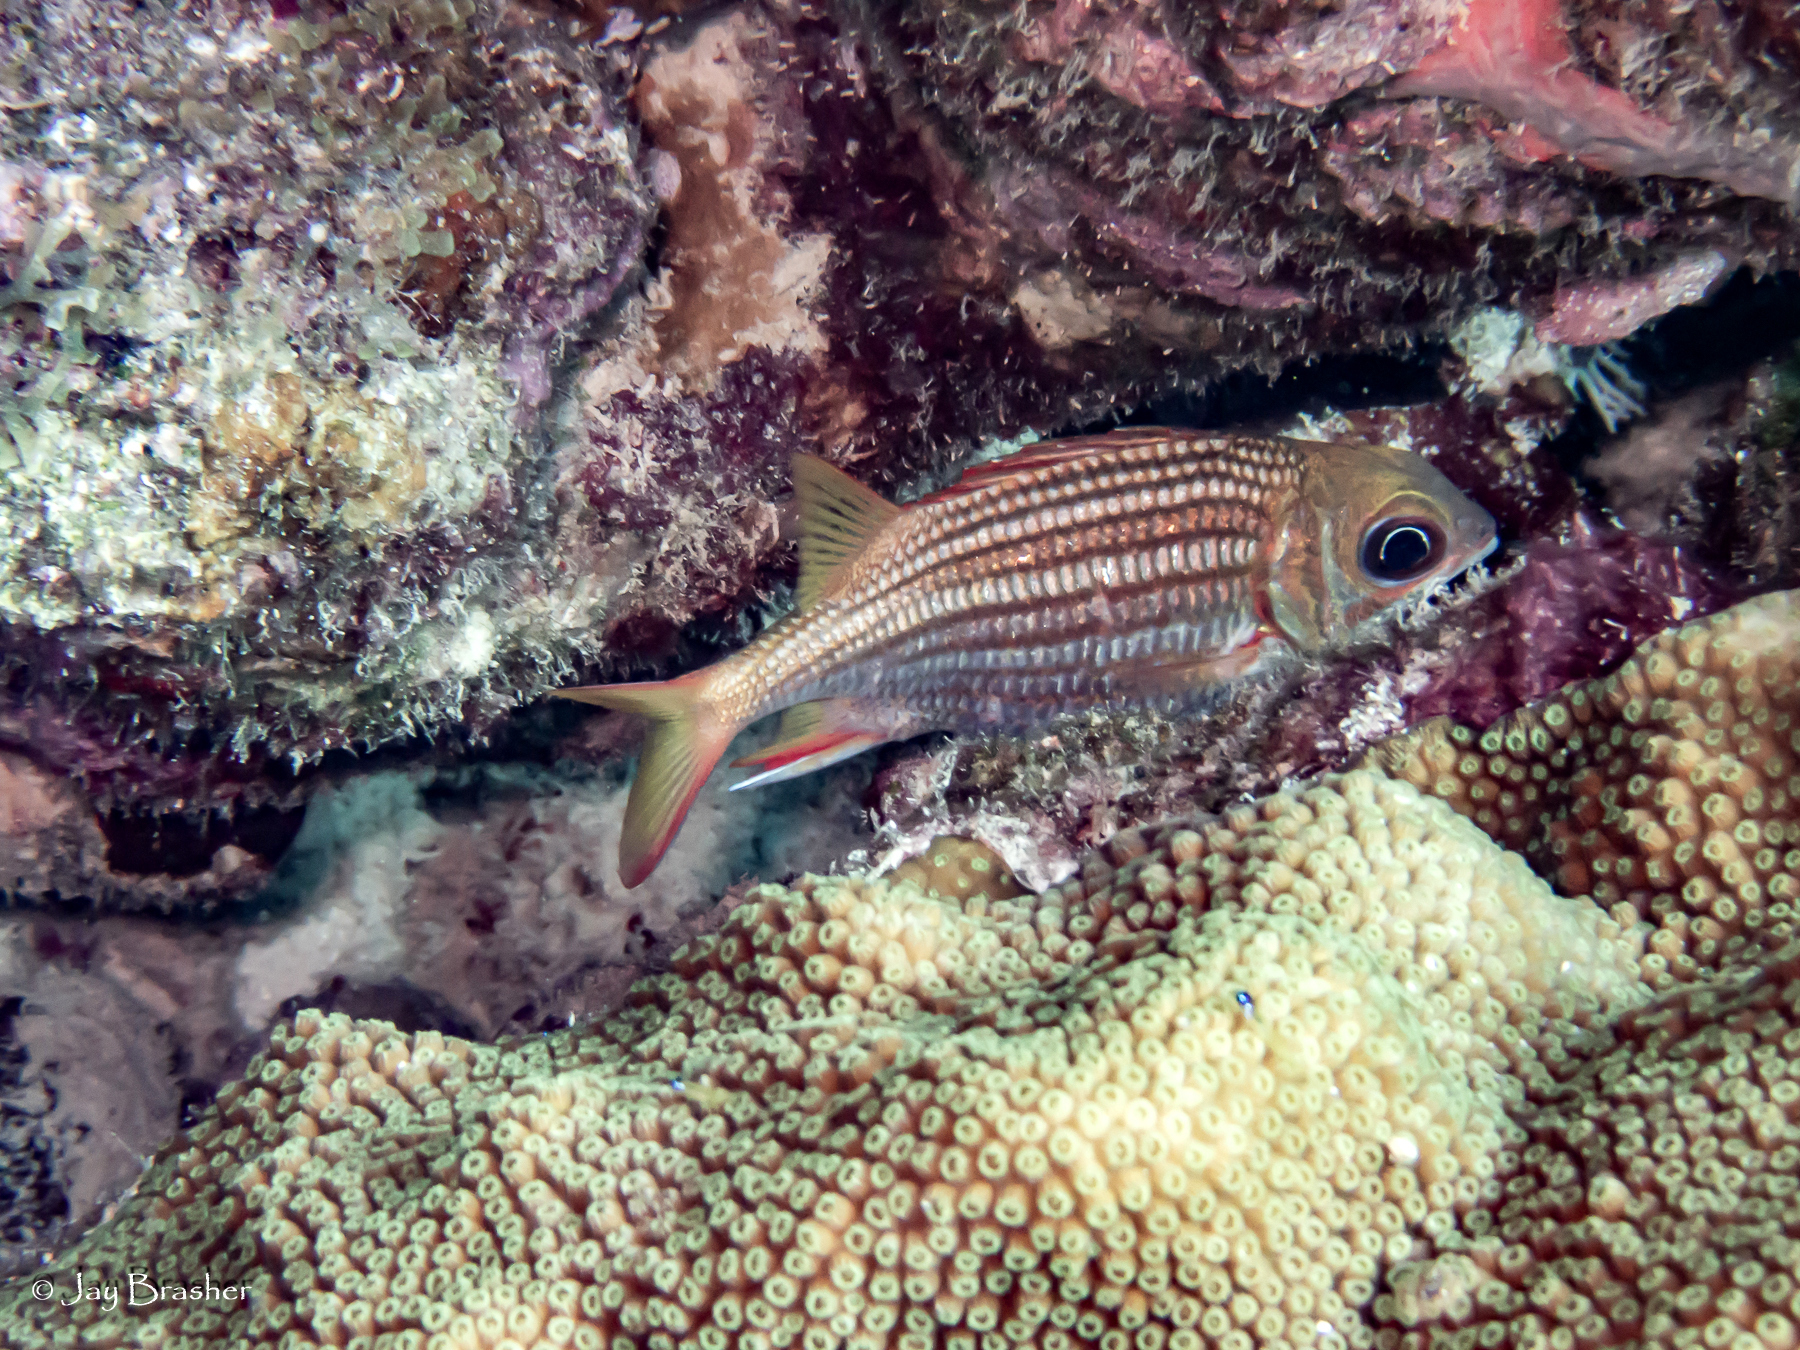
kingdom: Animalia
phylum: Chordata
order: Beryciformes
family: Holocentridae
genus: Neoniphon
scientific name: Neoniphon vexillarium
